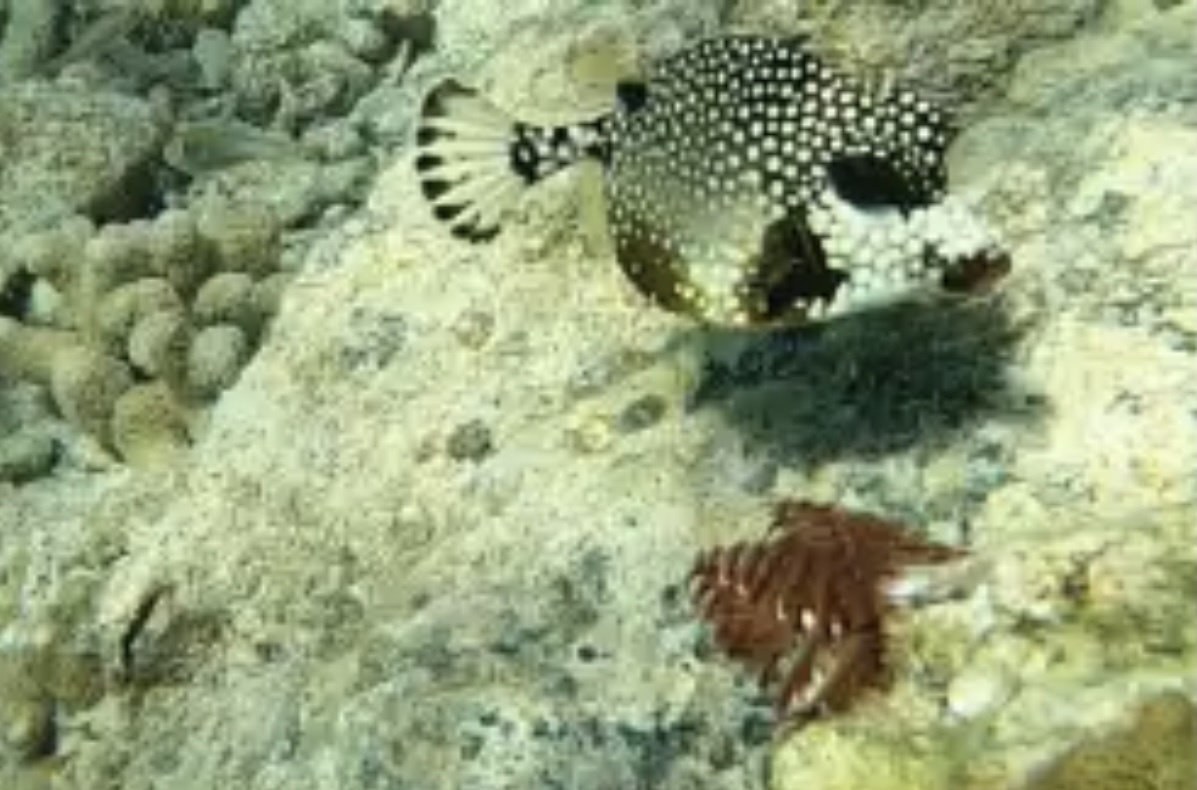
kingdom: Animalia
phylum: Chordata
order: Tetraodontiformes
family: Ostraciidae
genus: Lactophrys
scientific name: Lactophrys triqueter
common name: Smooth trunkfish
